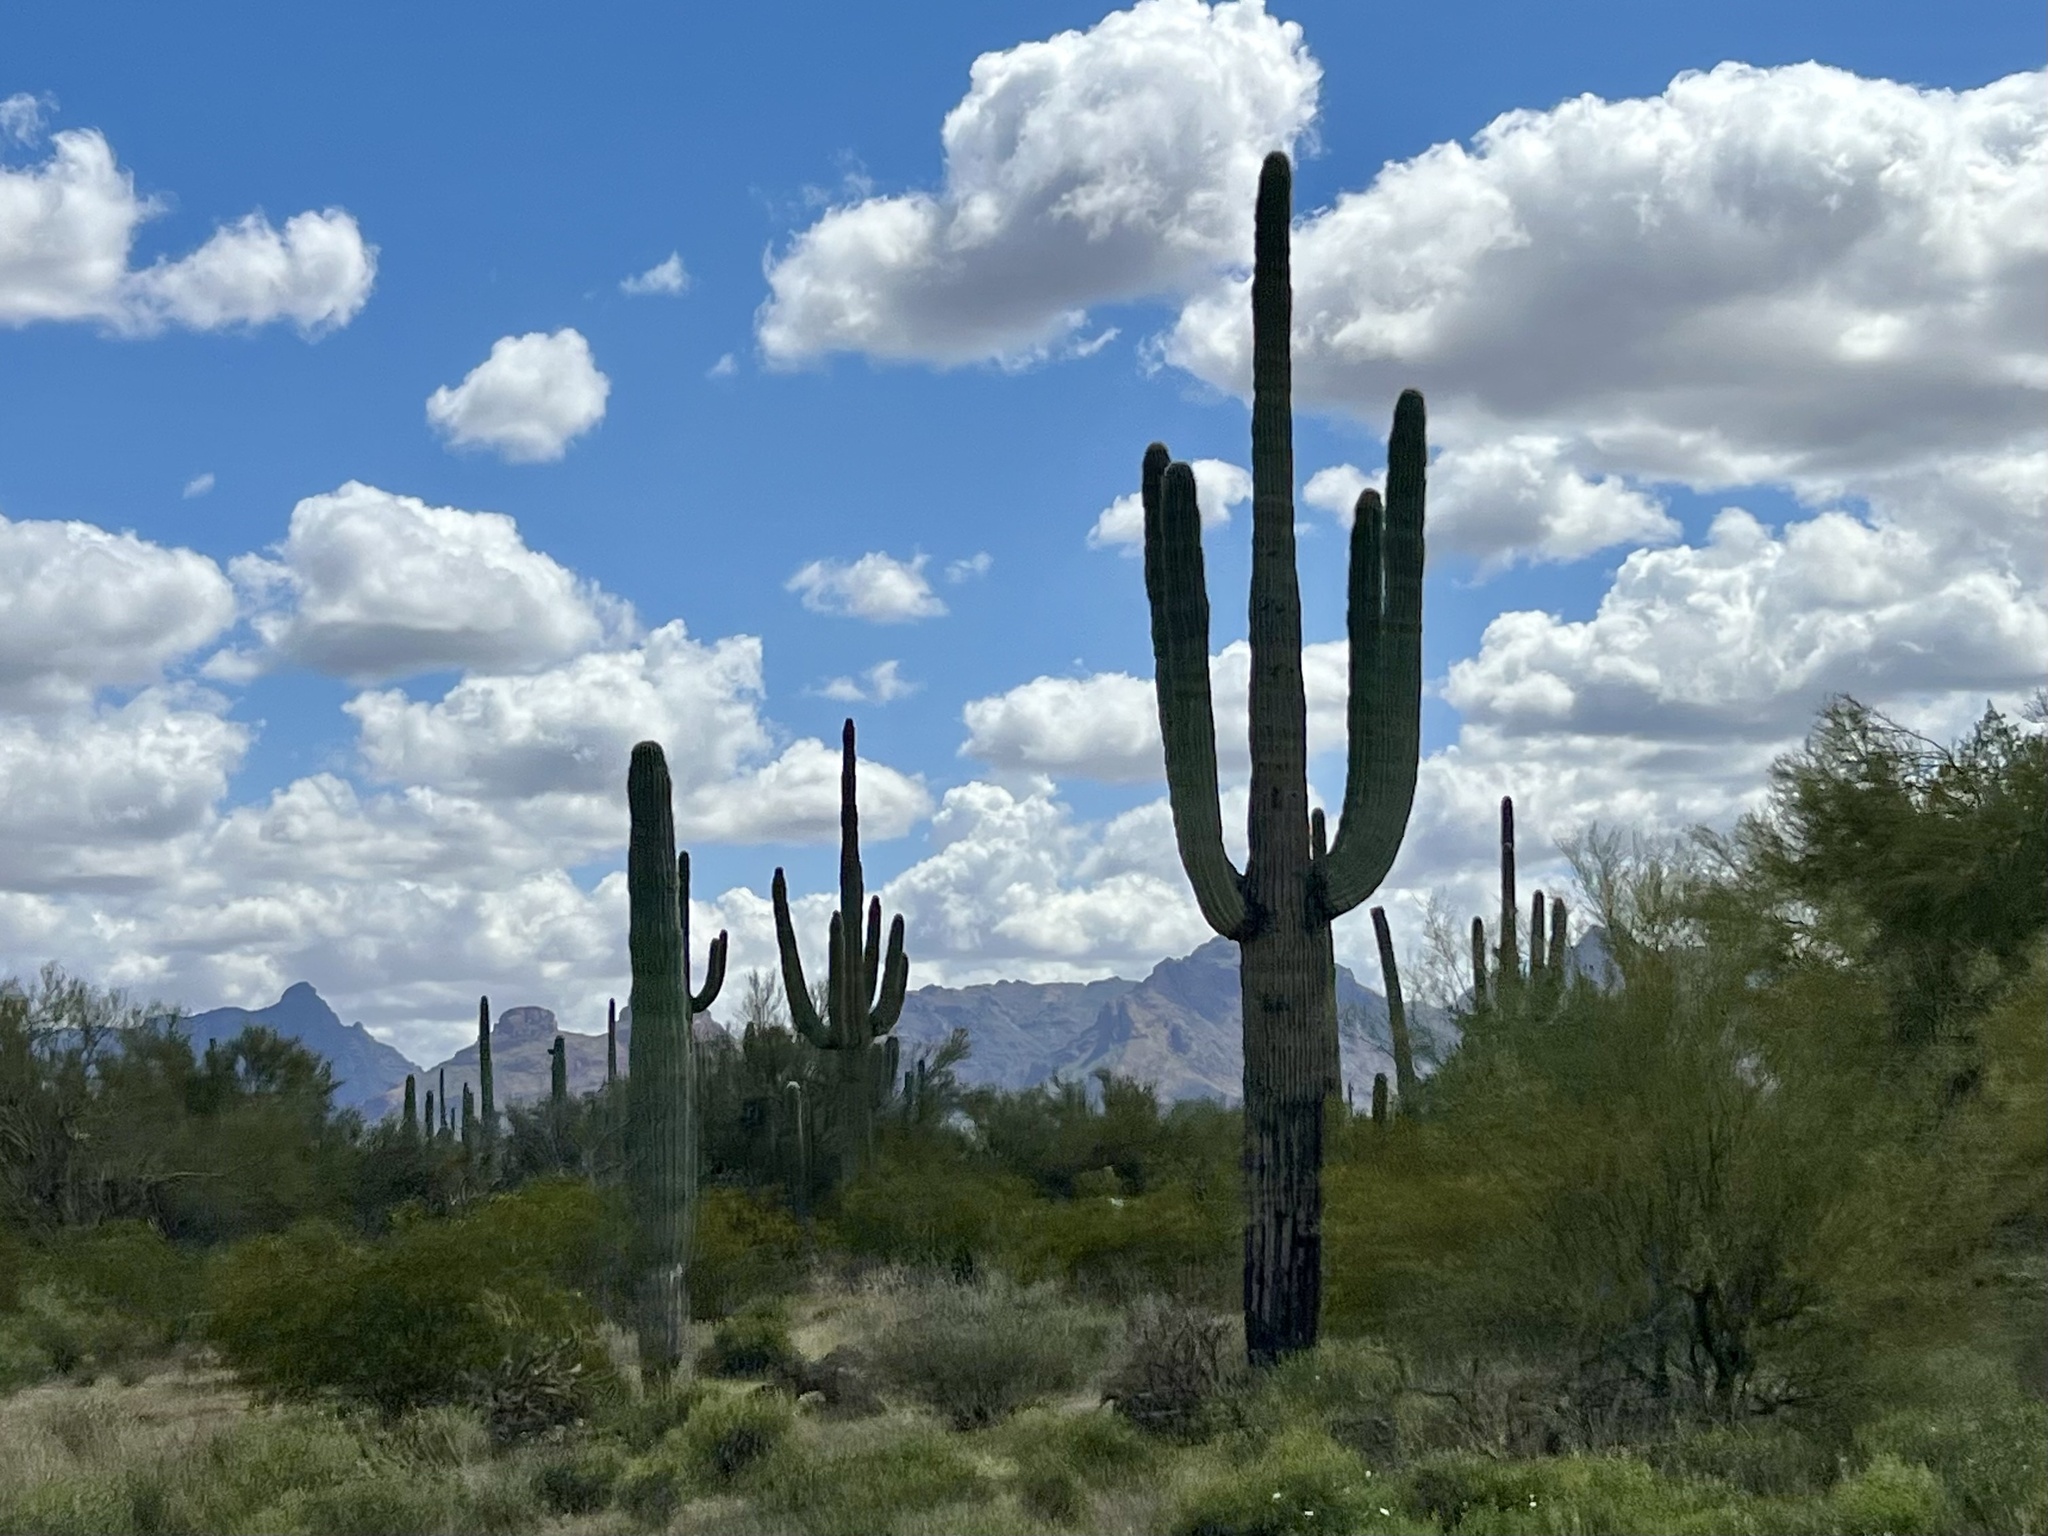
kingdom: Plantae
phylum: Tracheophyta
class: Magnoliopsida
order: Caryophyllales
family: Cactaceae
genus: Carnegiea
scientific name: Carnegiea gigantea
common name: Saguaro
